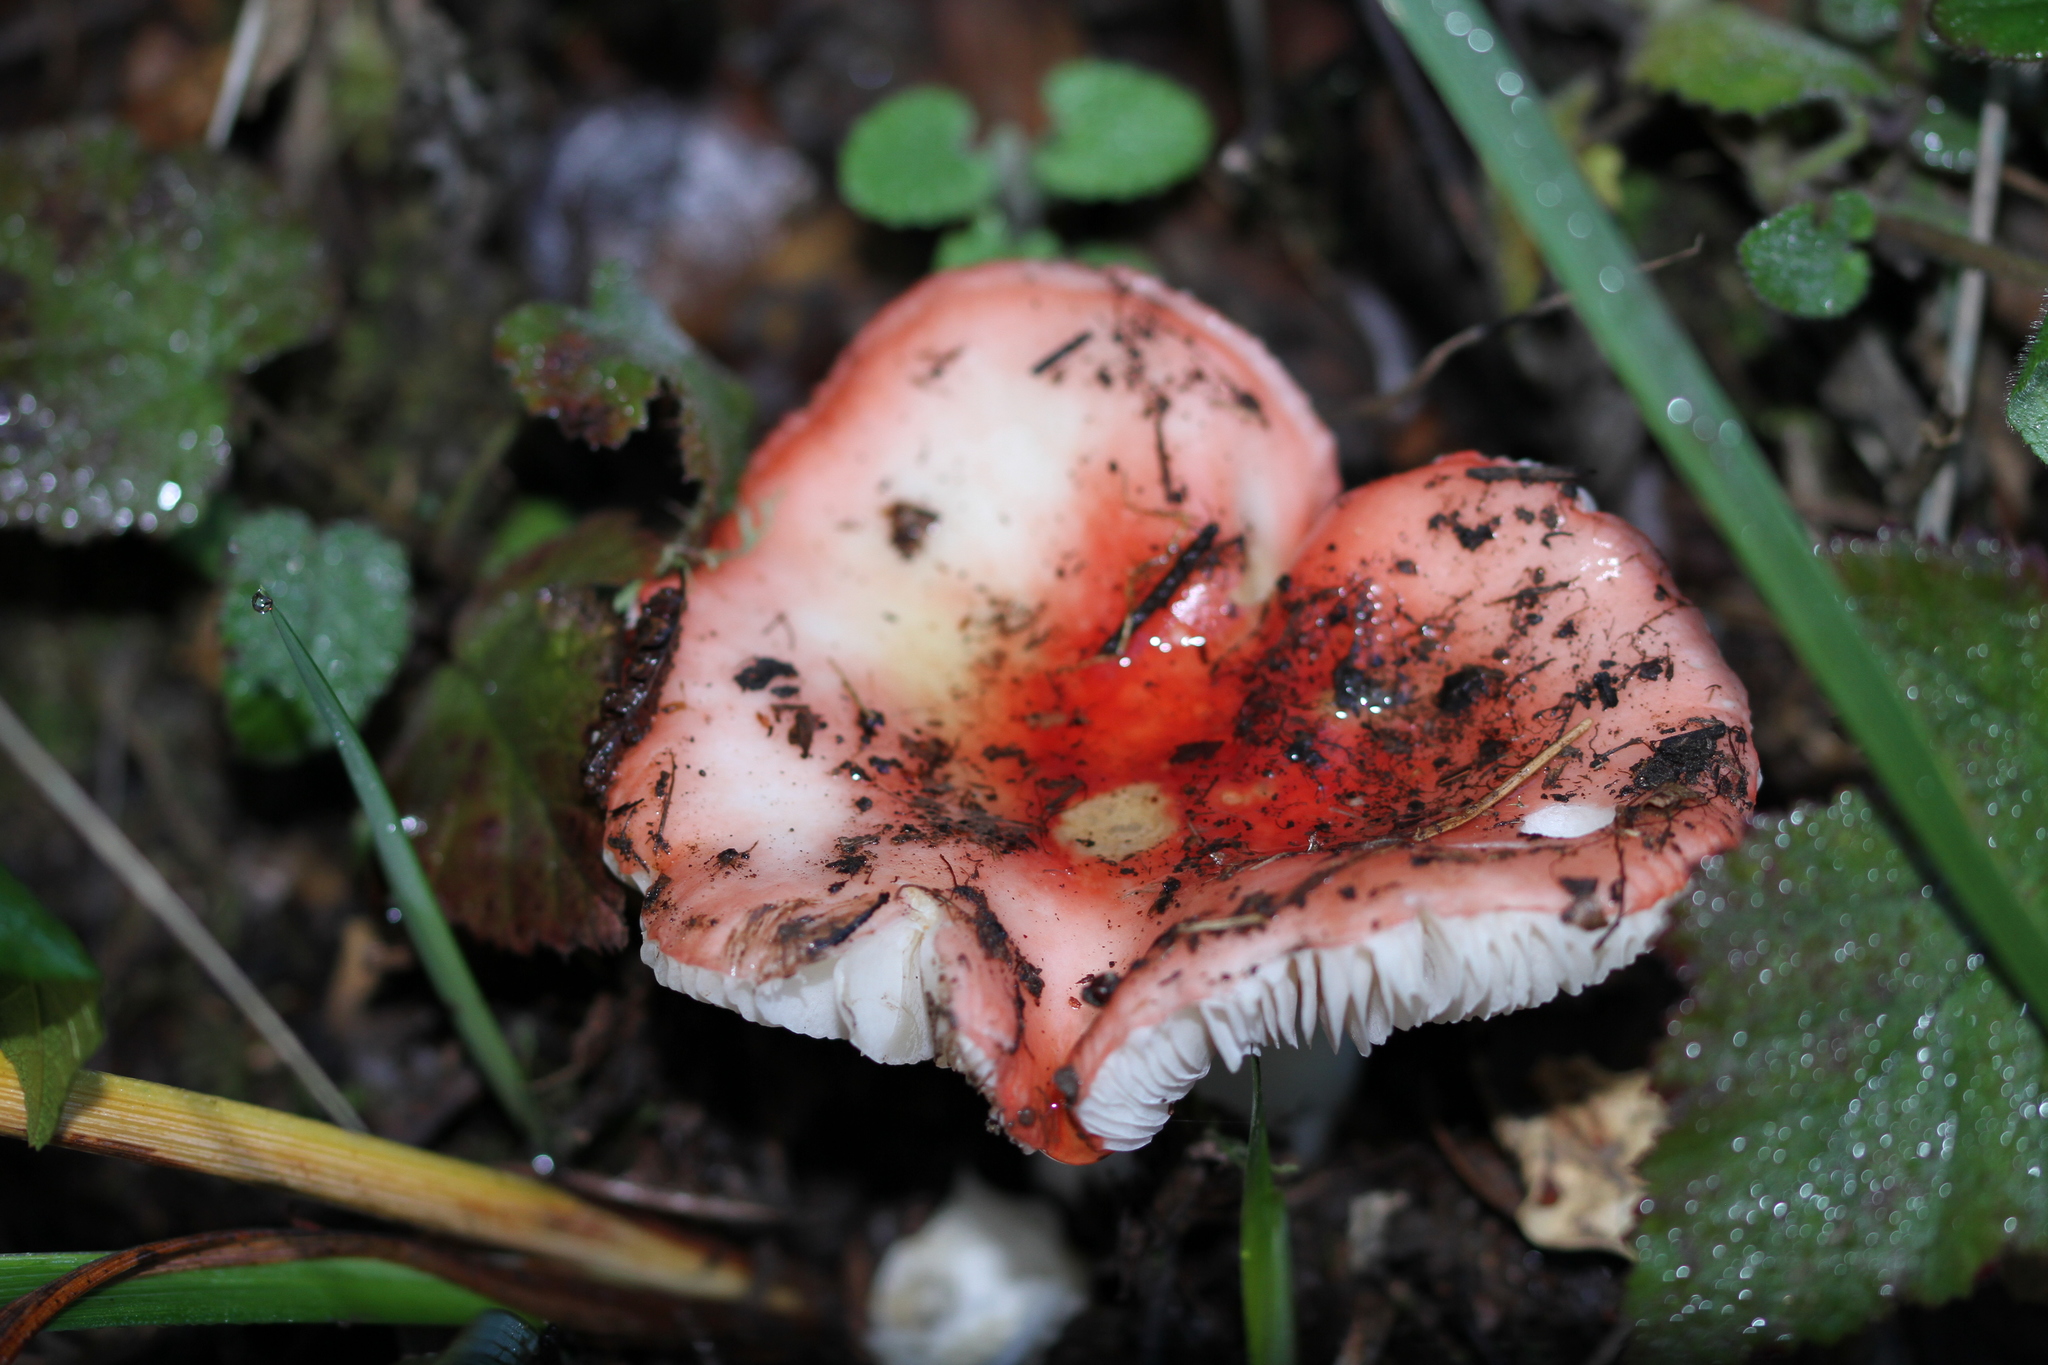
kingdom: Fungi
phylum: Basidiomycota
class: Agaricomycetes
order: Russulales
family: Russulaceae
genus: Russula
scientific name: Russula cremoricolor
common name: Winter russula
